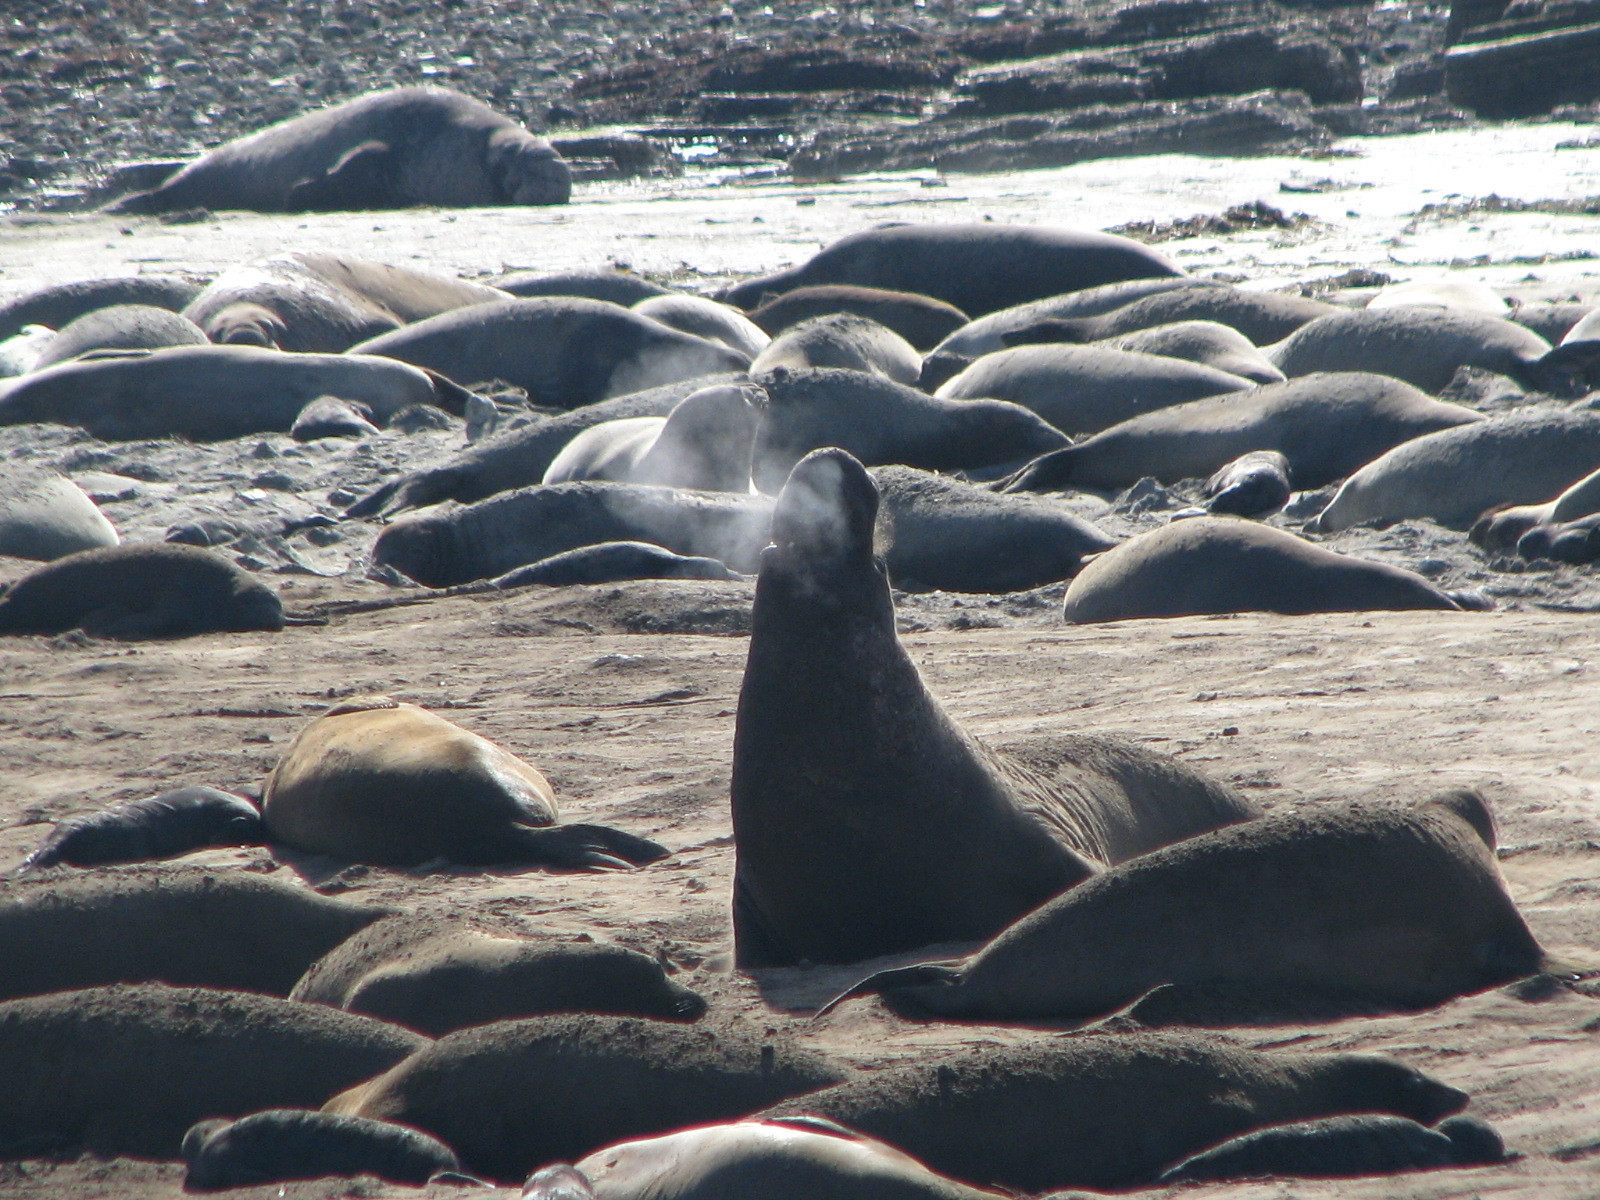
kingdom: Animalia
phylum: Chordata
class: Mammalia
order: Carnivora
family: Phocidae
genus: Mirounga
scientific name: Mirounga angustirostris
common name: Northern elephant seal
